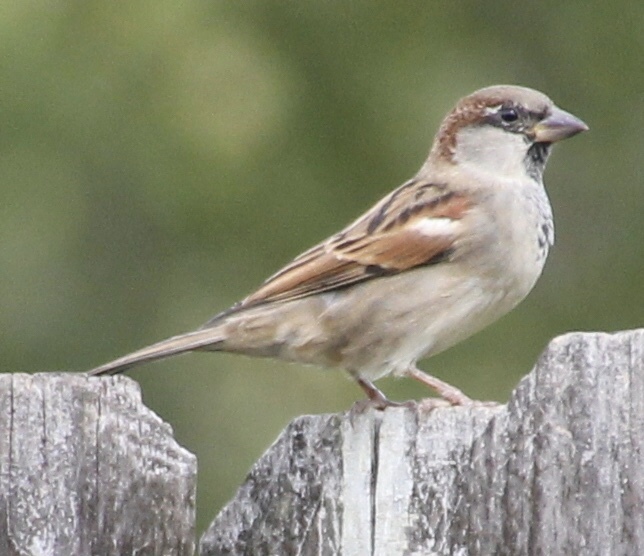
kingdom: Animalia
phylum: Chordata
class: Aves
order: Passeriformes
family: Passeridae
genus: Passer
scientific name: Passer domesticus
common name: House sparrow
